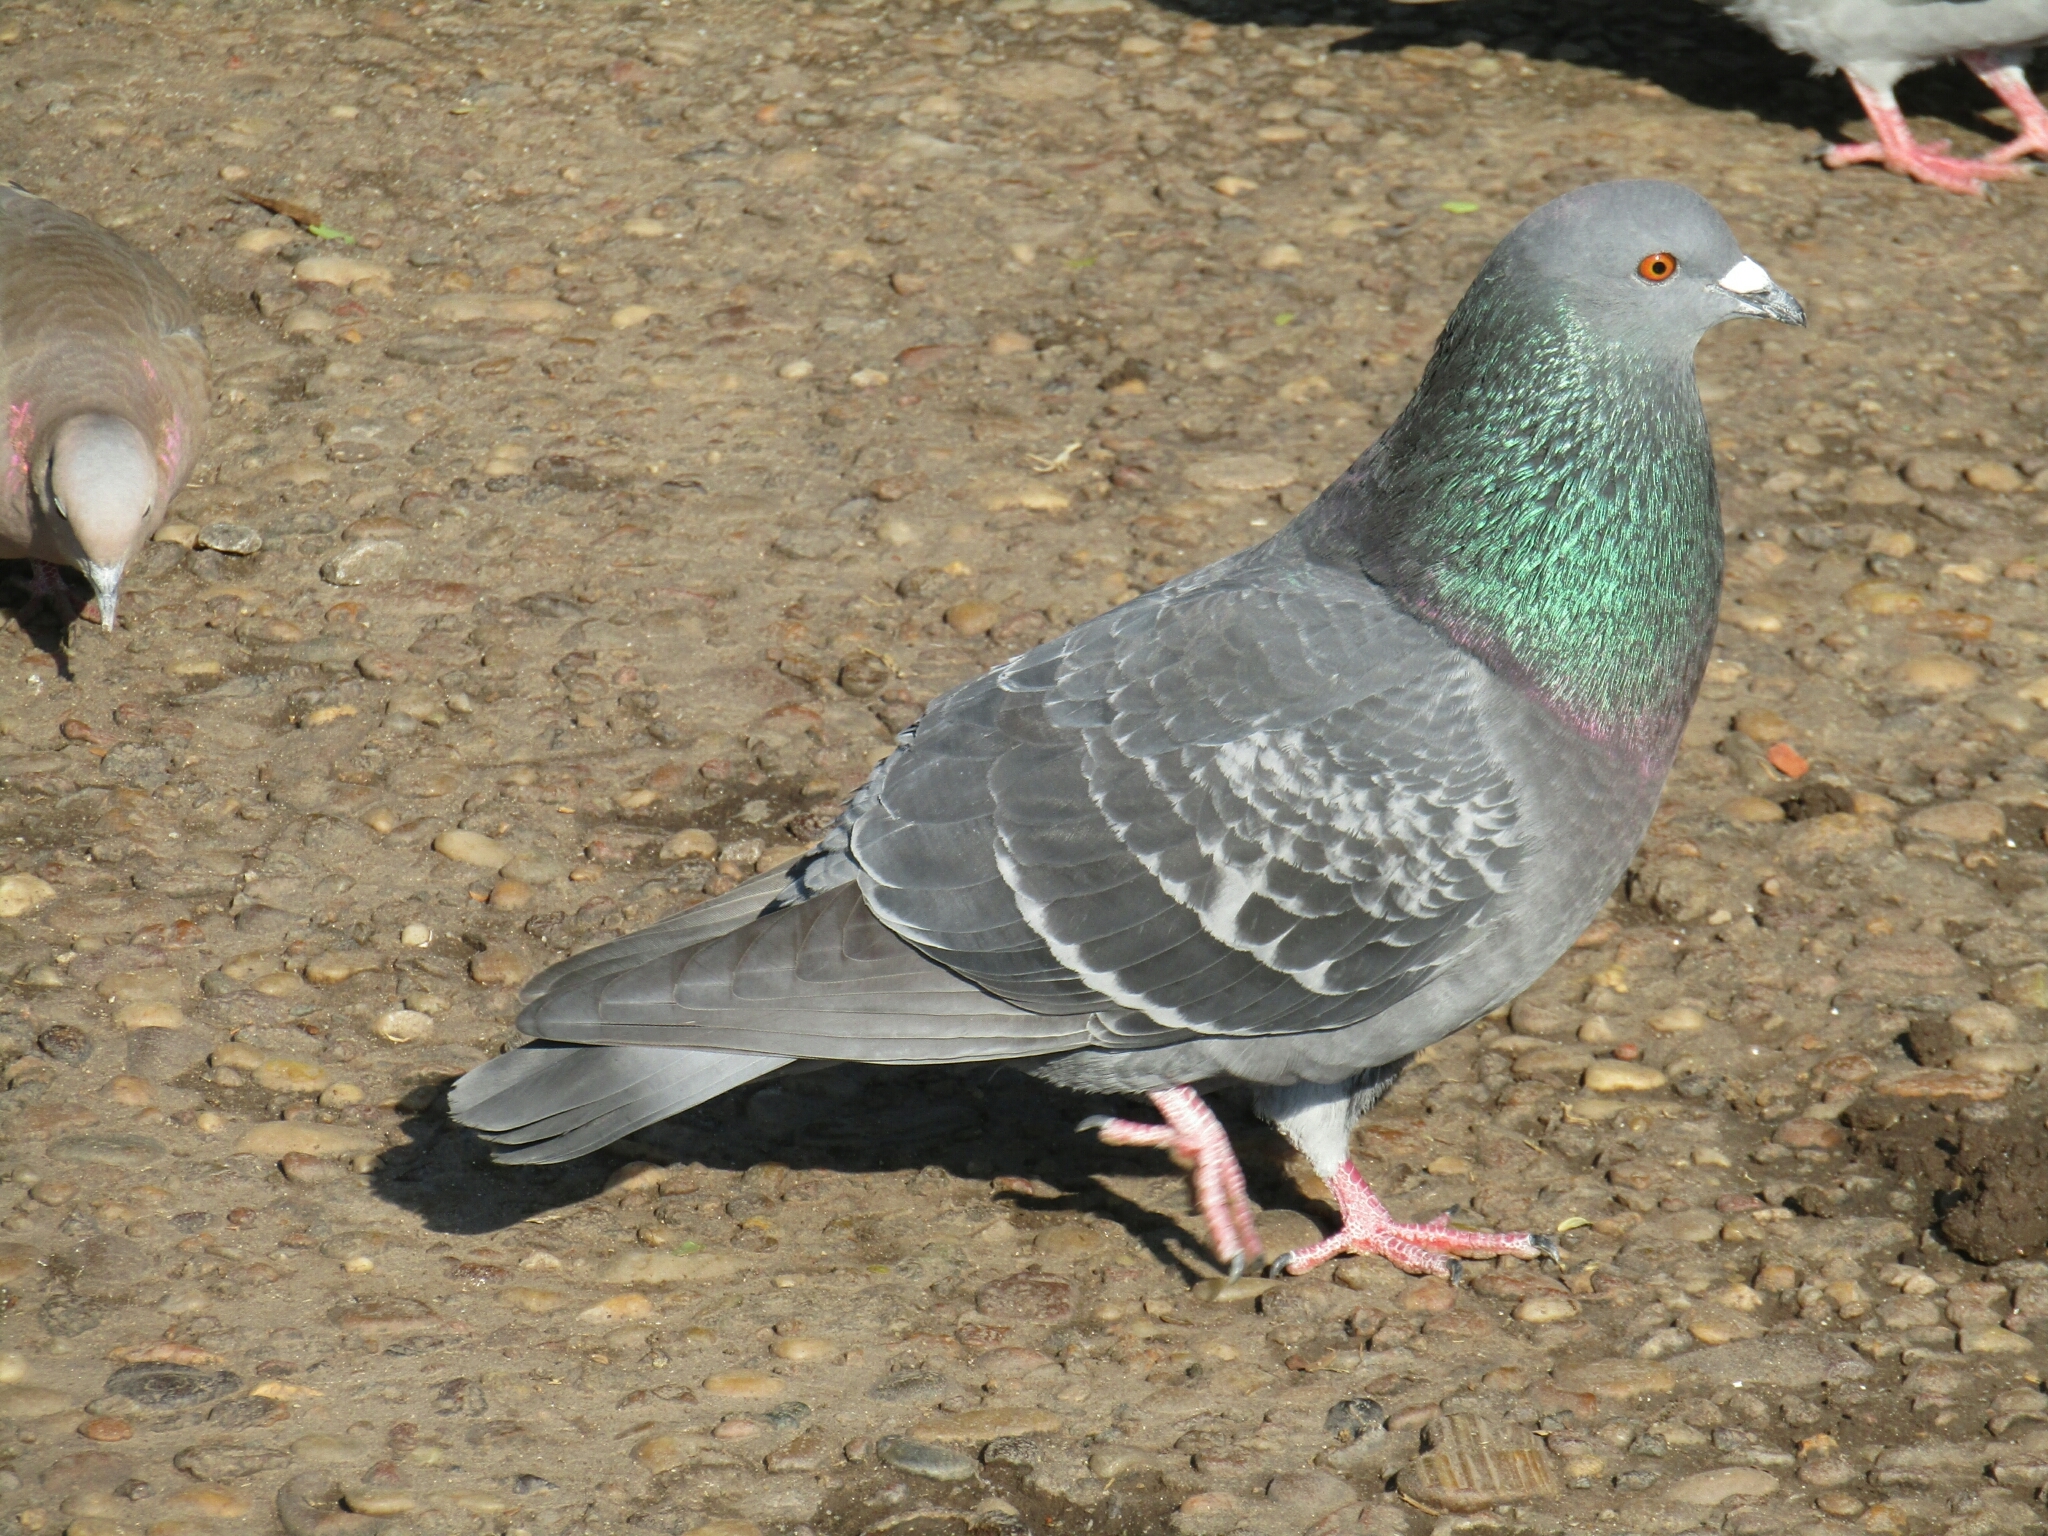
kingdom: Animalia
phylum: Chordata
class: Aves
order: Columbiformes
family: Columbidae
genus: Columba
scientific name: Columba livia
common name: Rock pigeon
